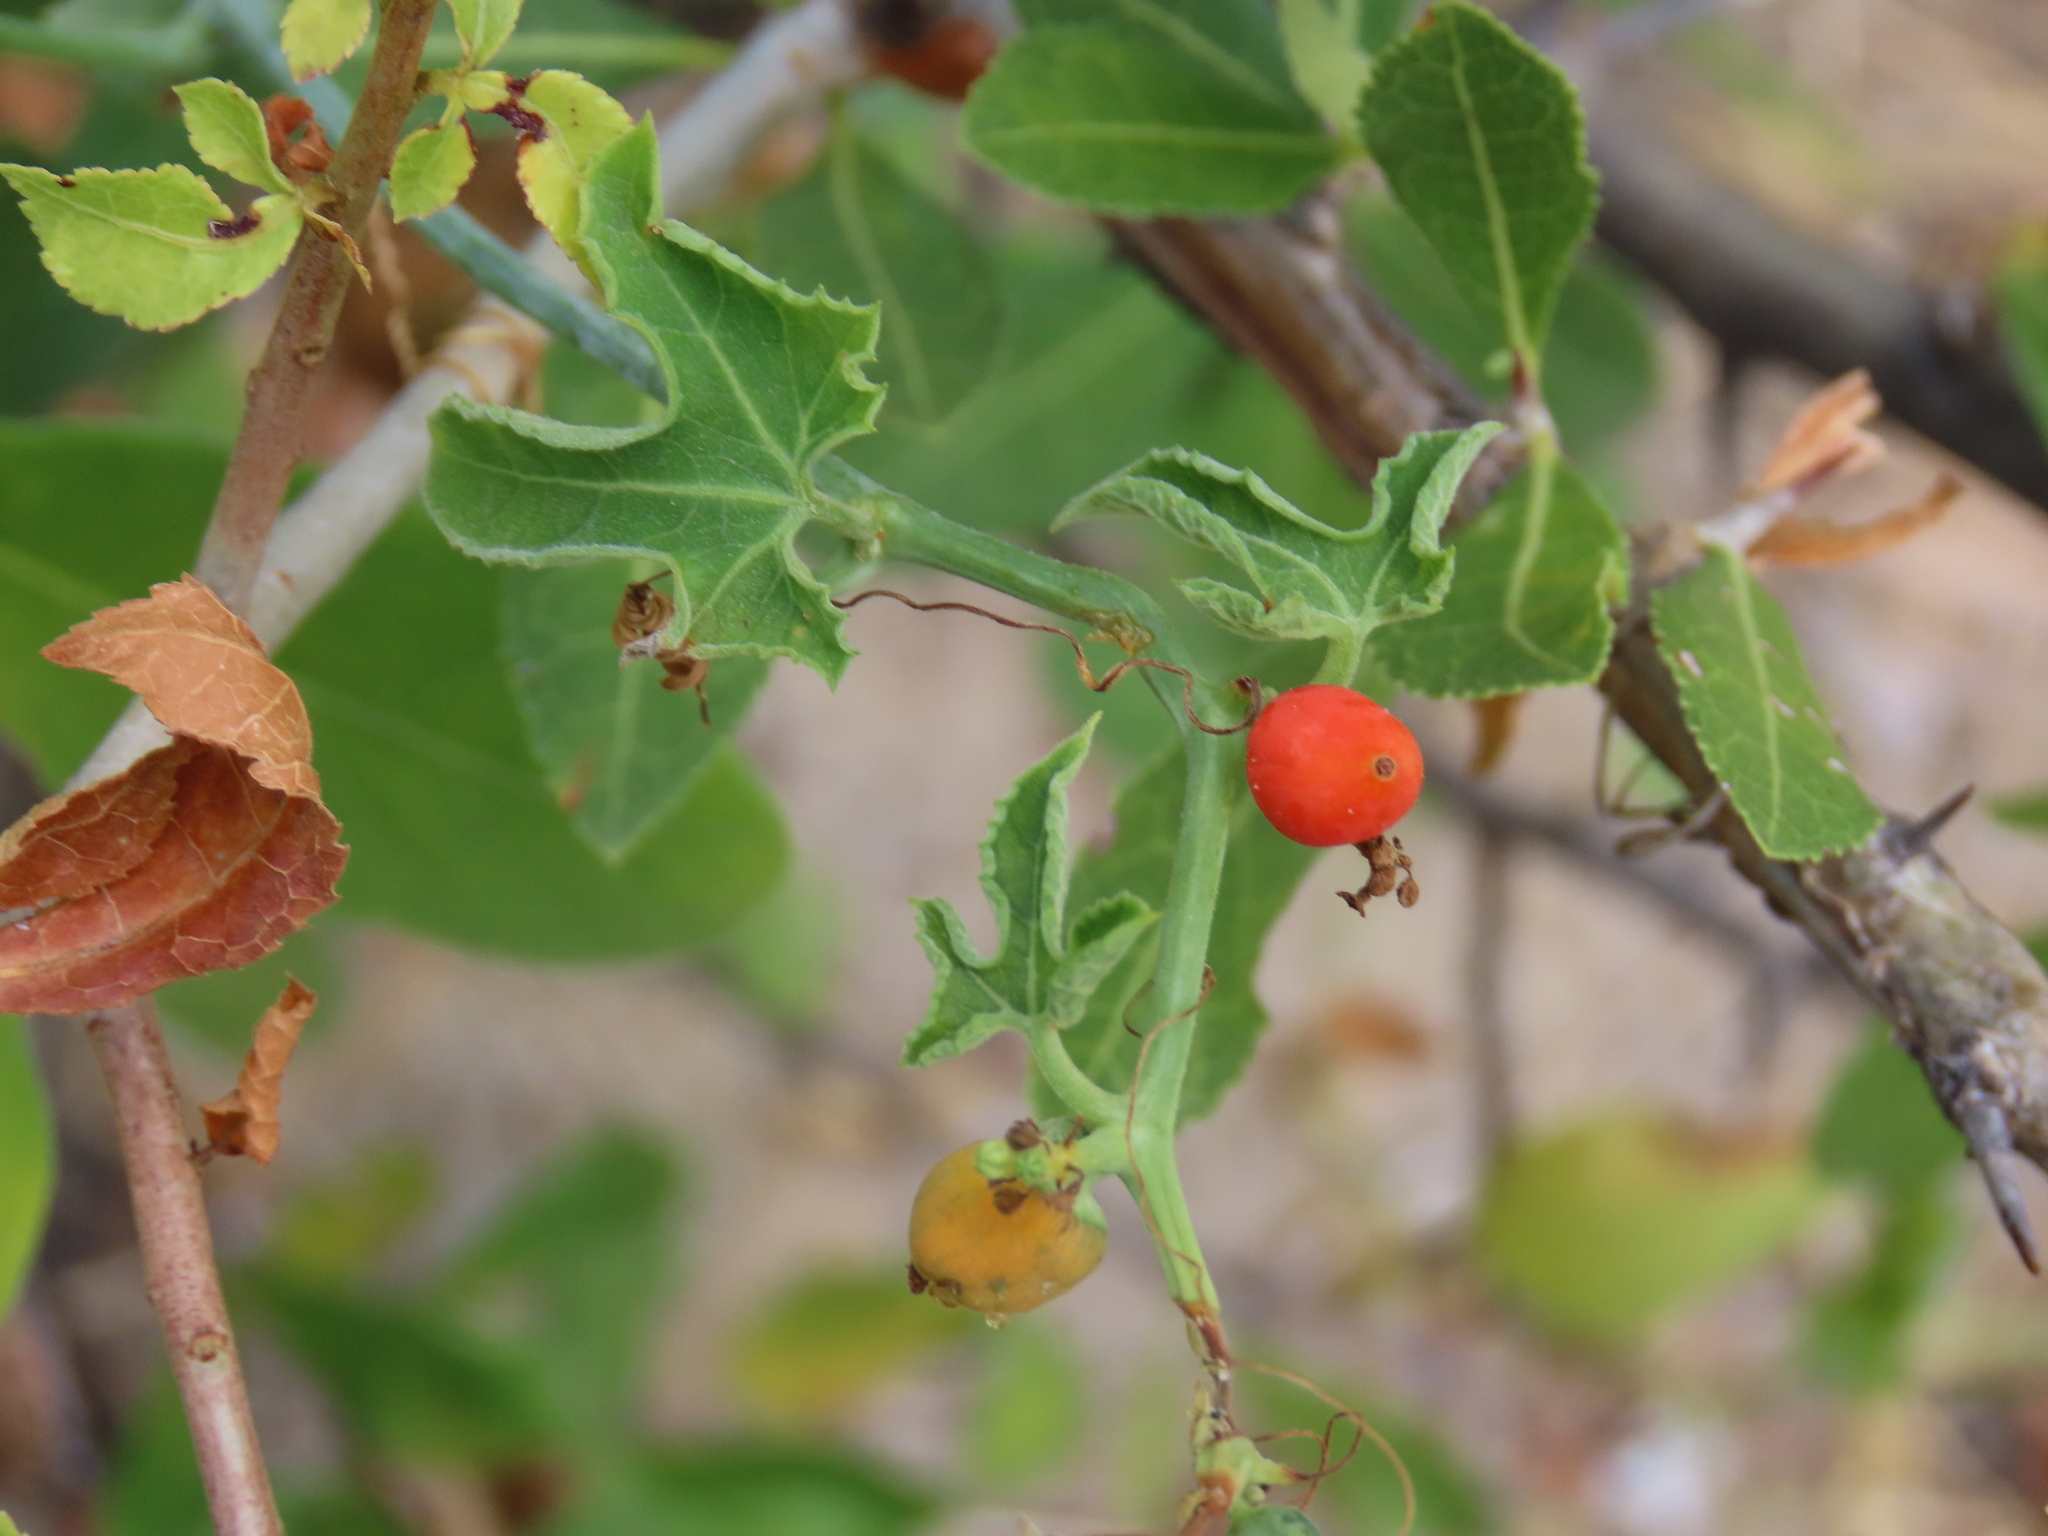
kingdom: Plantae
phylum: Tracheophyta
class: Magnoliopsida
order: Cucurbitales
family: Cucurbitaceae
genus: Corallocarpus
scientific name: Corallocarpus bainesii
